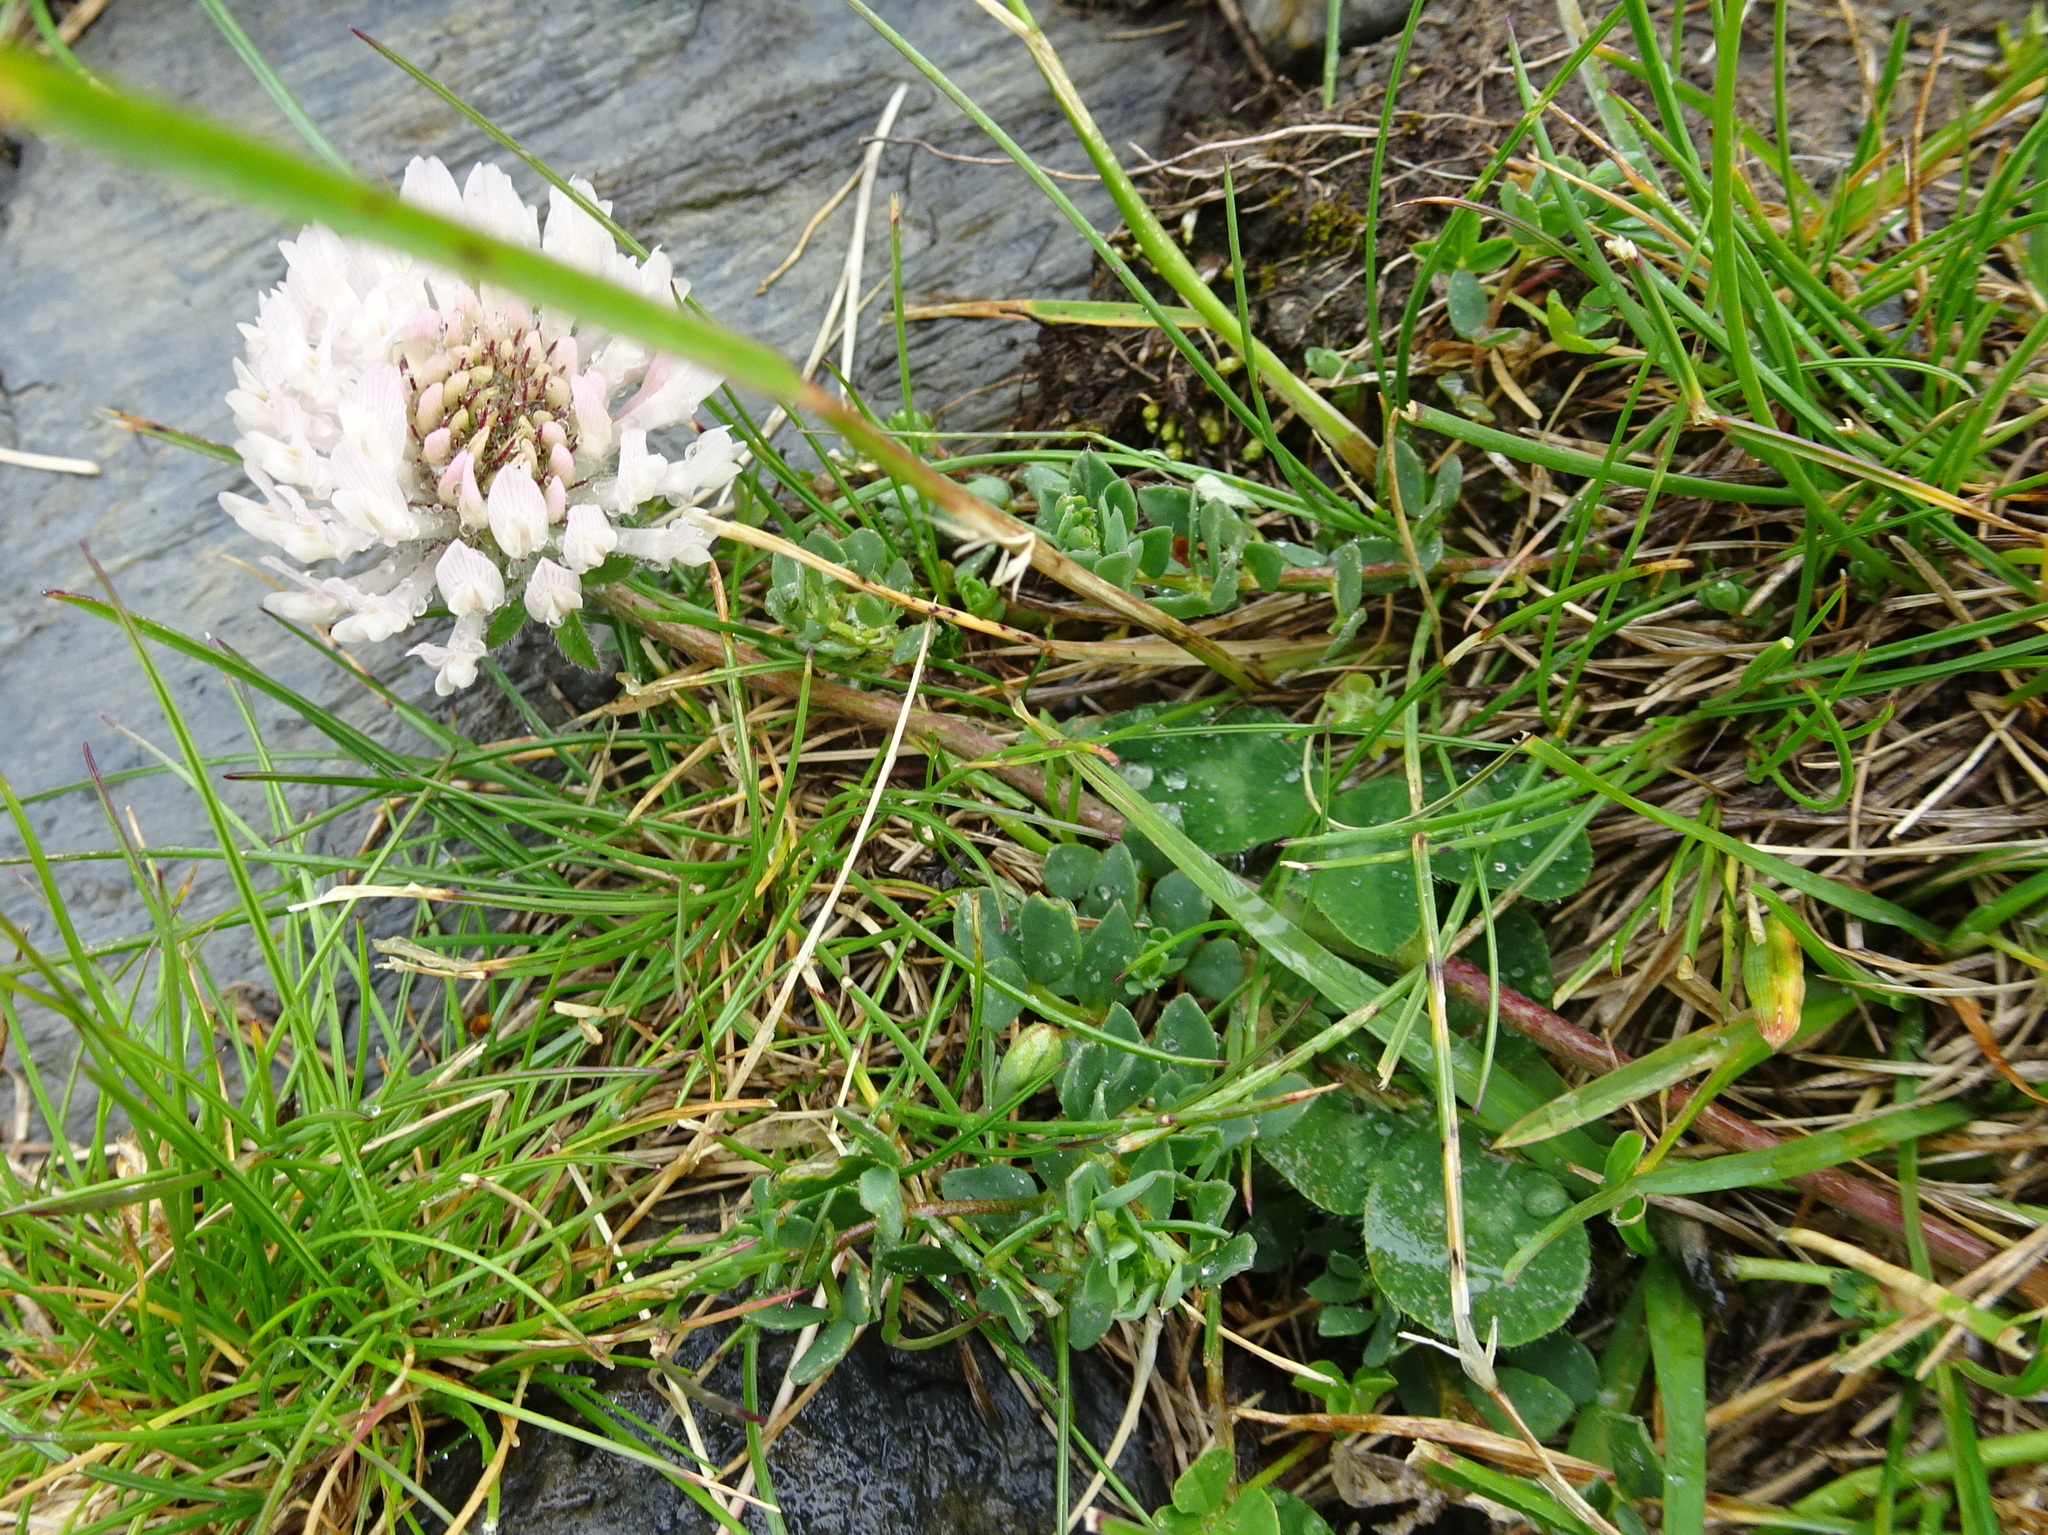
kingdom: Plantae
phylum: Tracheophyta
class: Magnoliopsida
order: Fabales
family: Fabaceae
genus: Trifolium
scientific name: Trifolium repens
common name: White clover
